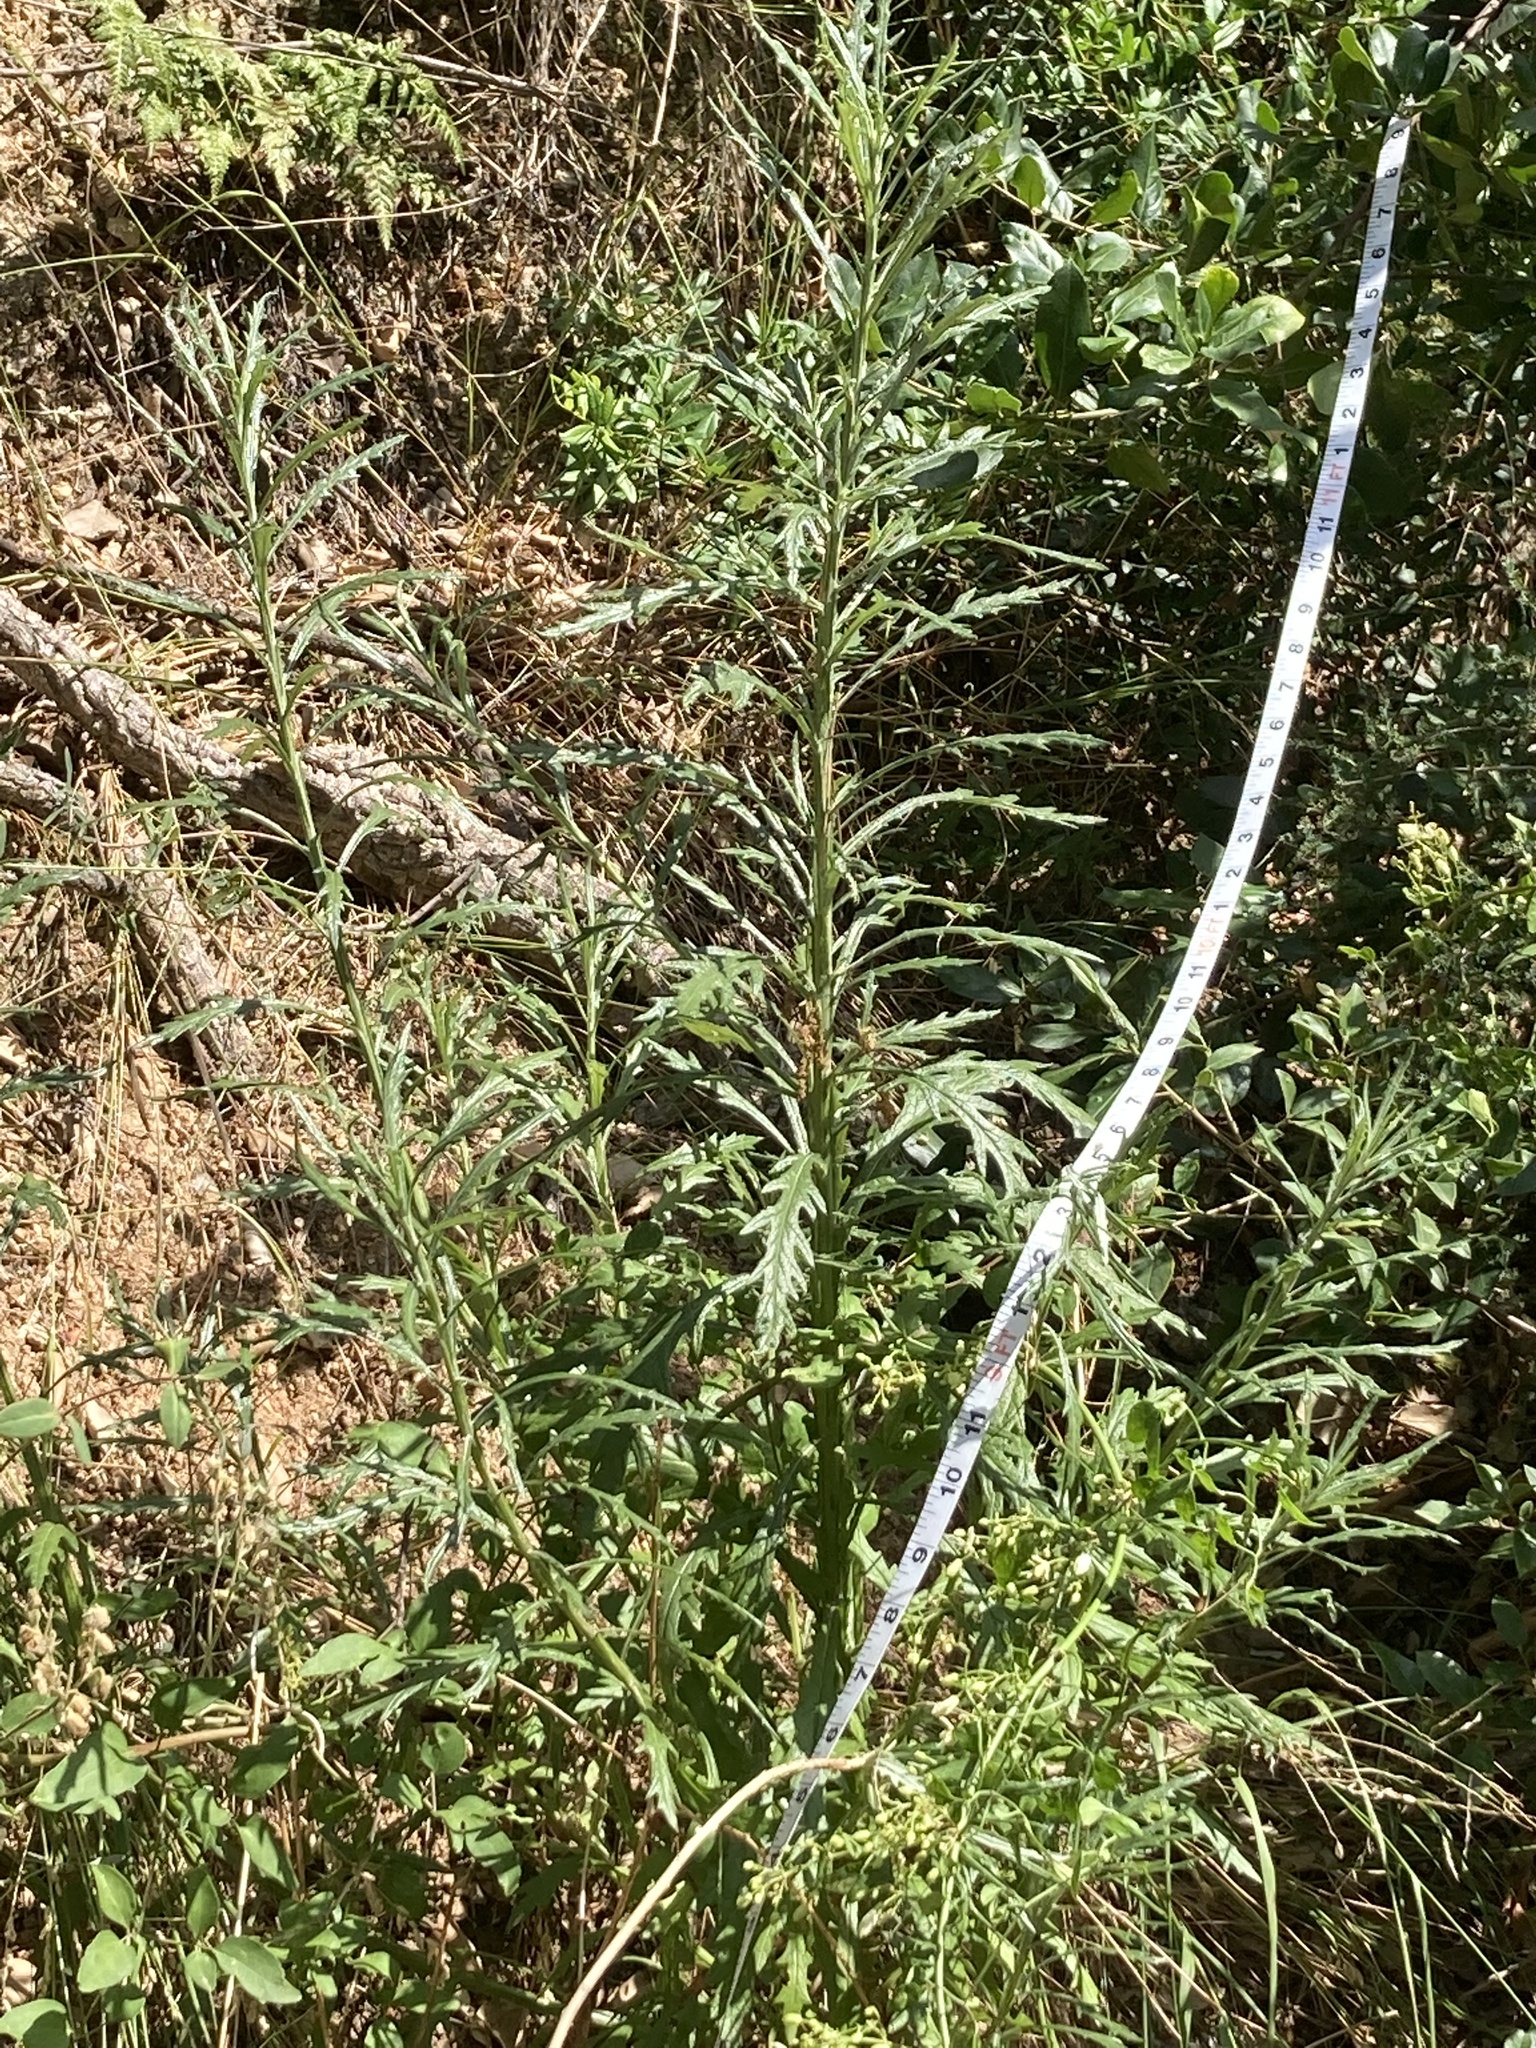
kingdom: Plantae
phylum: Tracheophyta
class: Magnoliopsida
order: Asterales
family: Asteraceae
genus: Senecio
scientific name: Senecio pterophorus
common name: Shoddy ragwort
